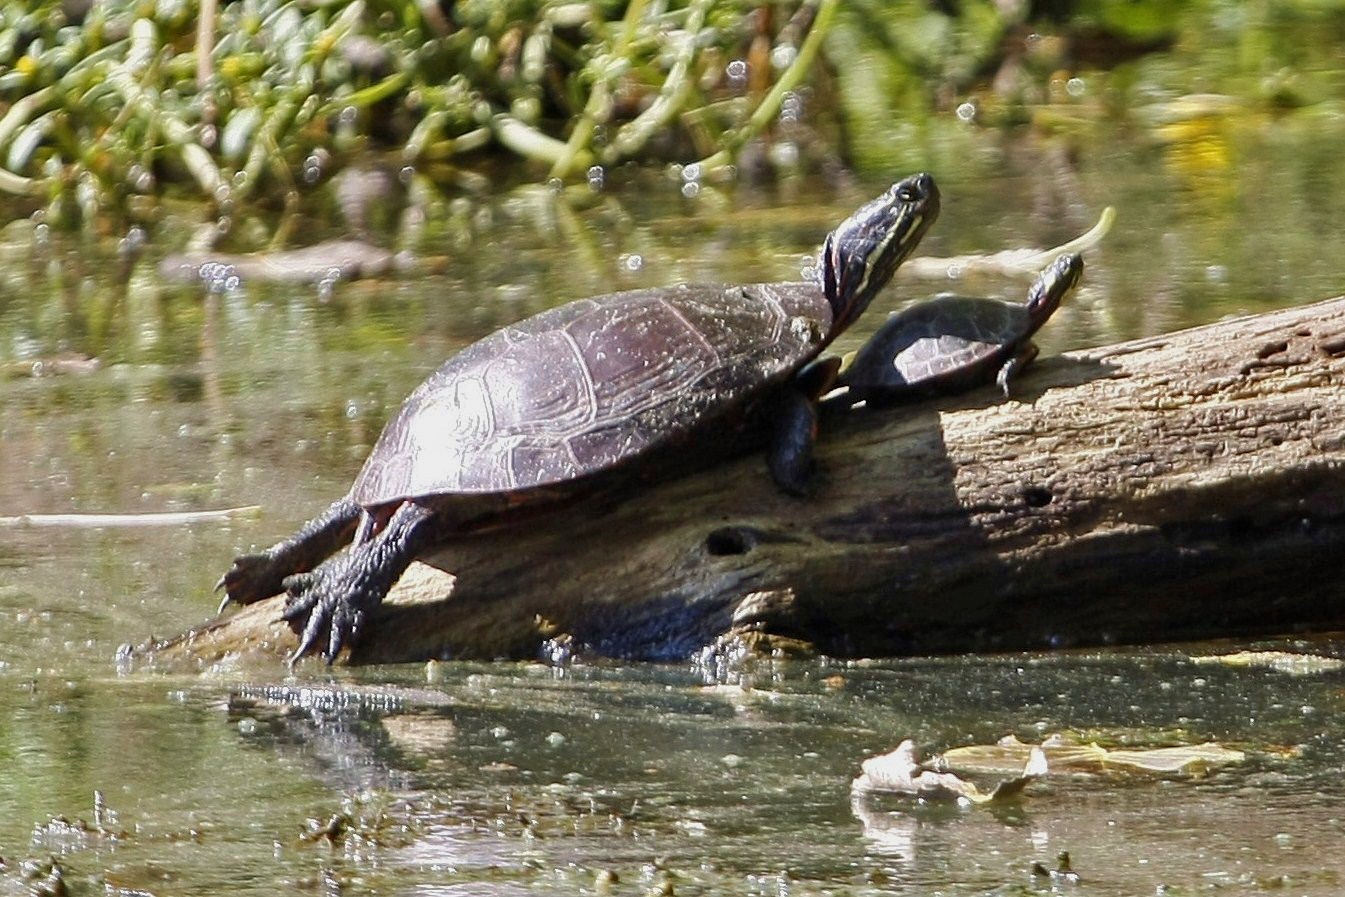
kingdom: Animalia
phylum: Chordata
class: Testudines
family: Emydidae
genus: Chrysemys
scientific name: Chrysemys picta
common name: Painted turtle
